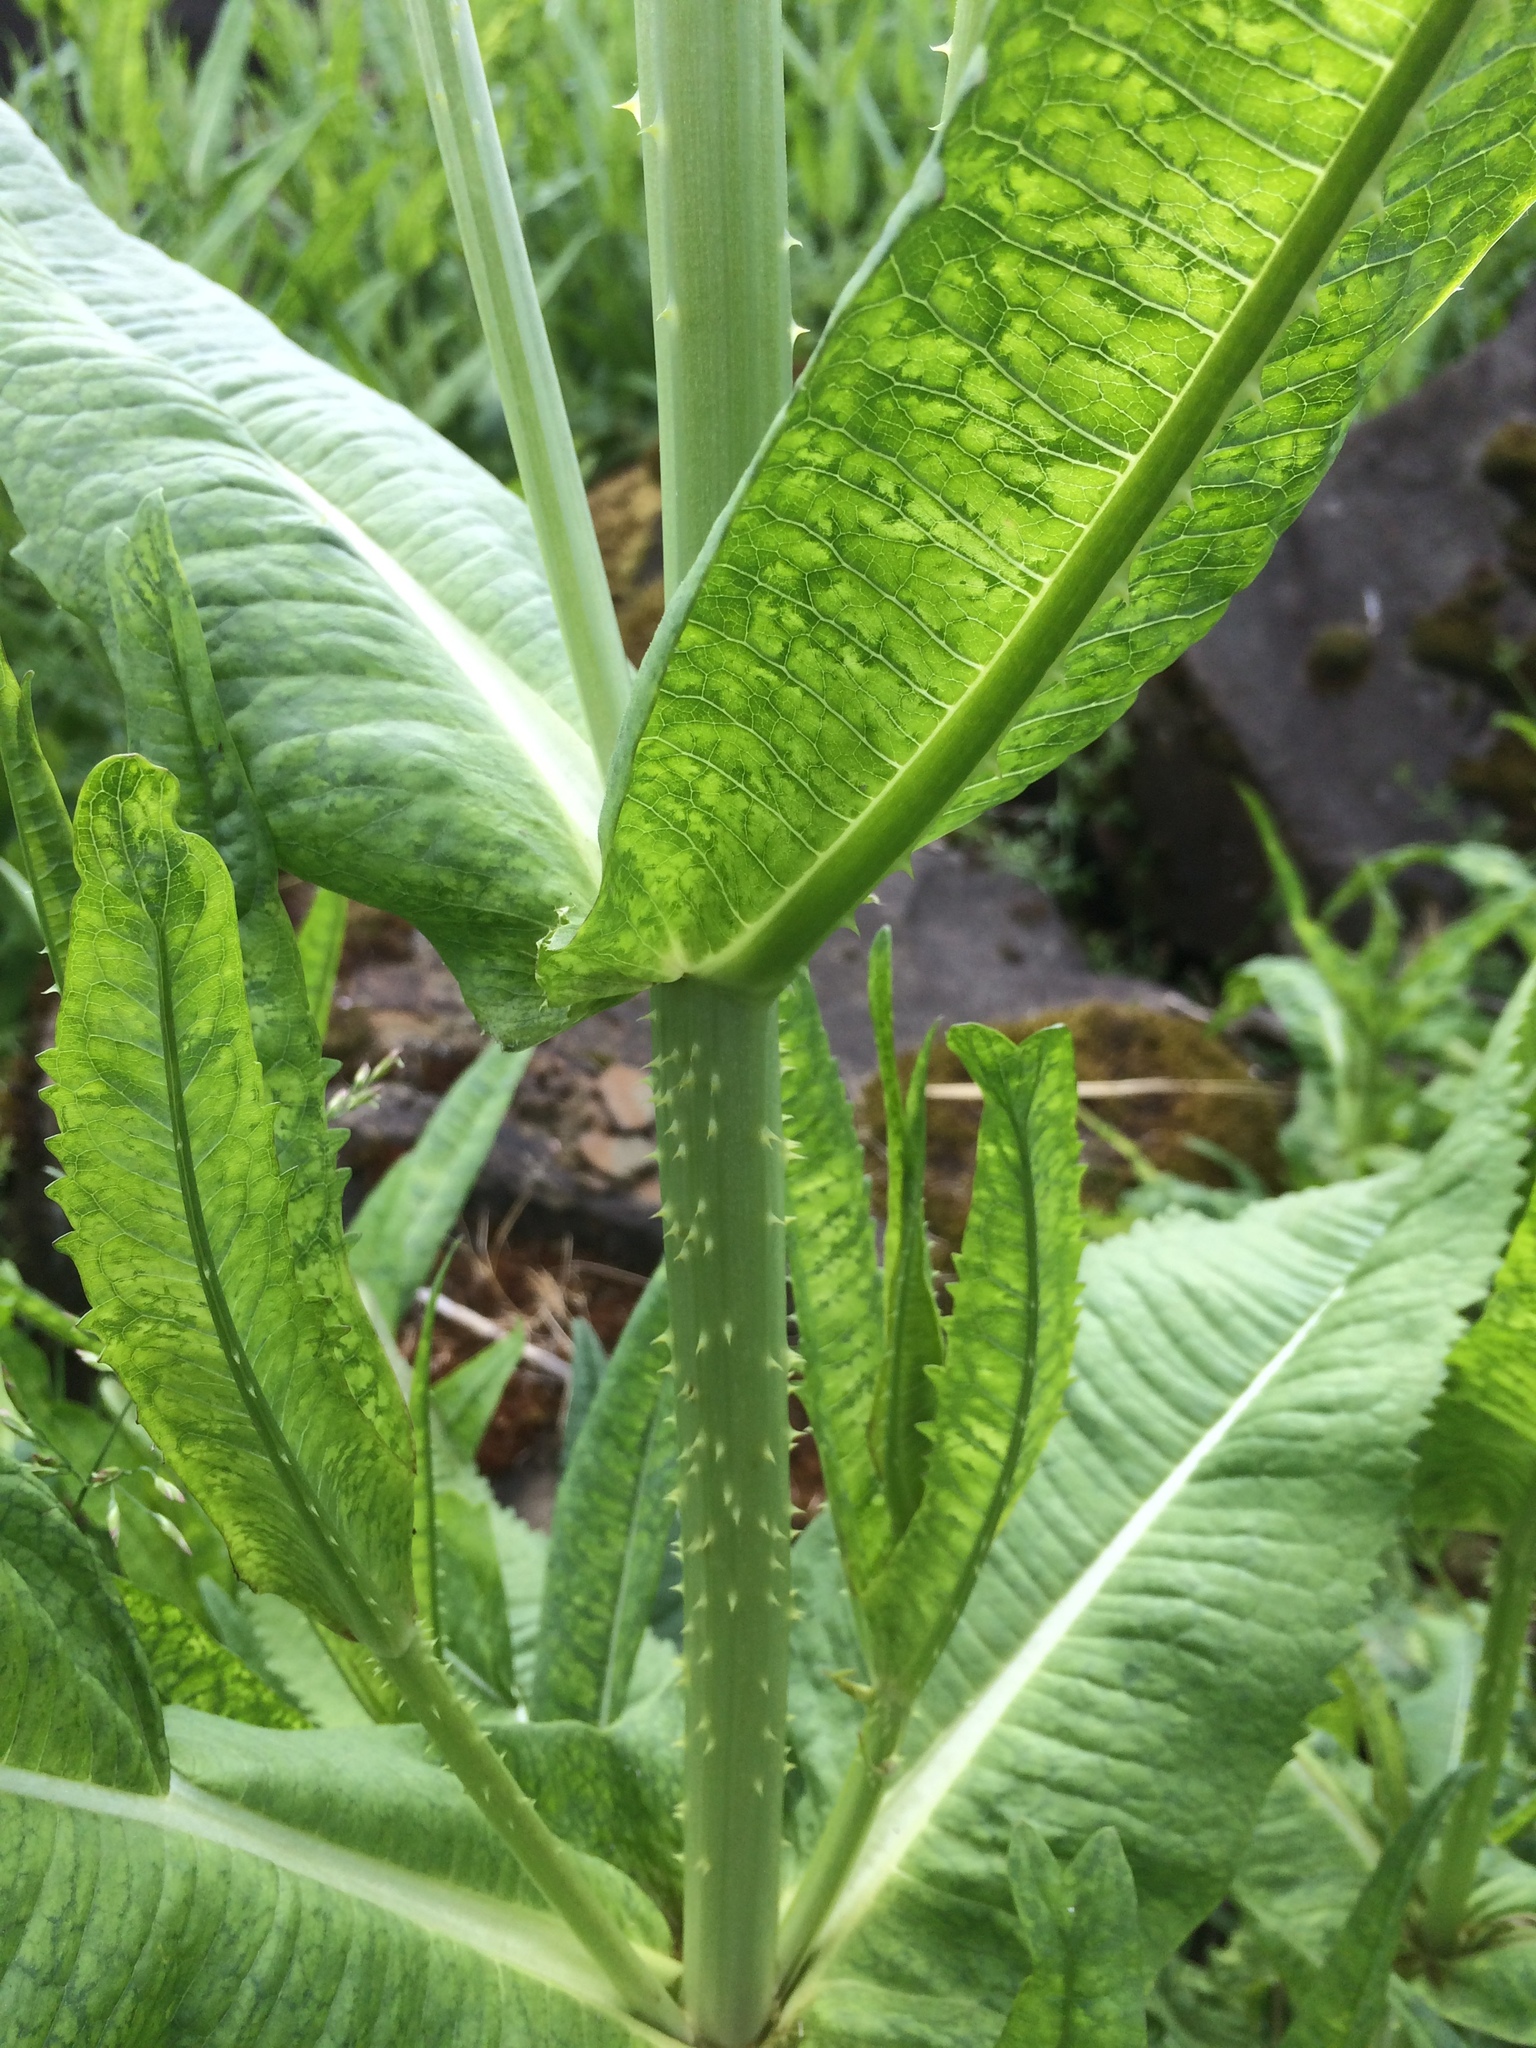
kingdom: Plantae
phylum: Tracheophyta
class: Magnoliopsida
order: Dipsacales
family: Caprifoliaceae
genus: Dipsacus
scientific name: Dipsacus fullonum
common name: Teasel
